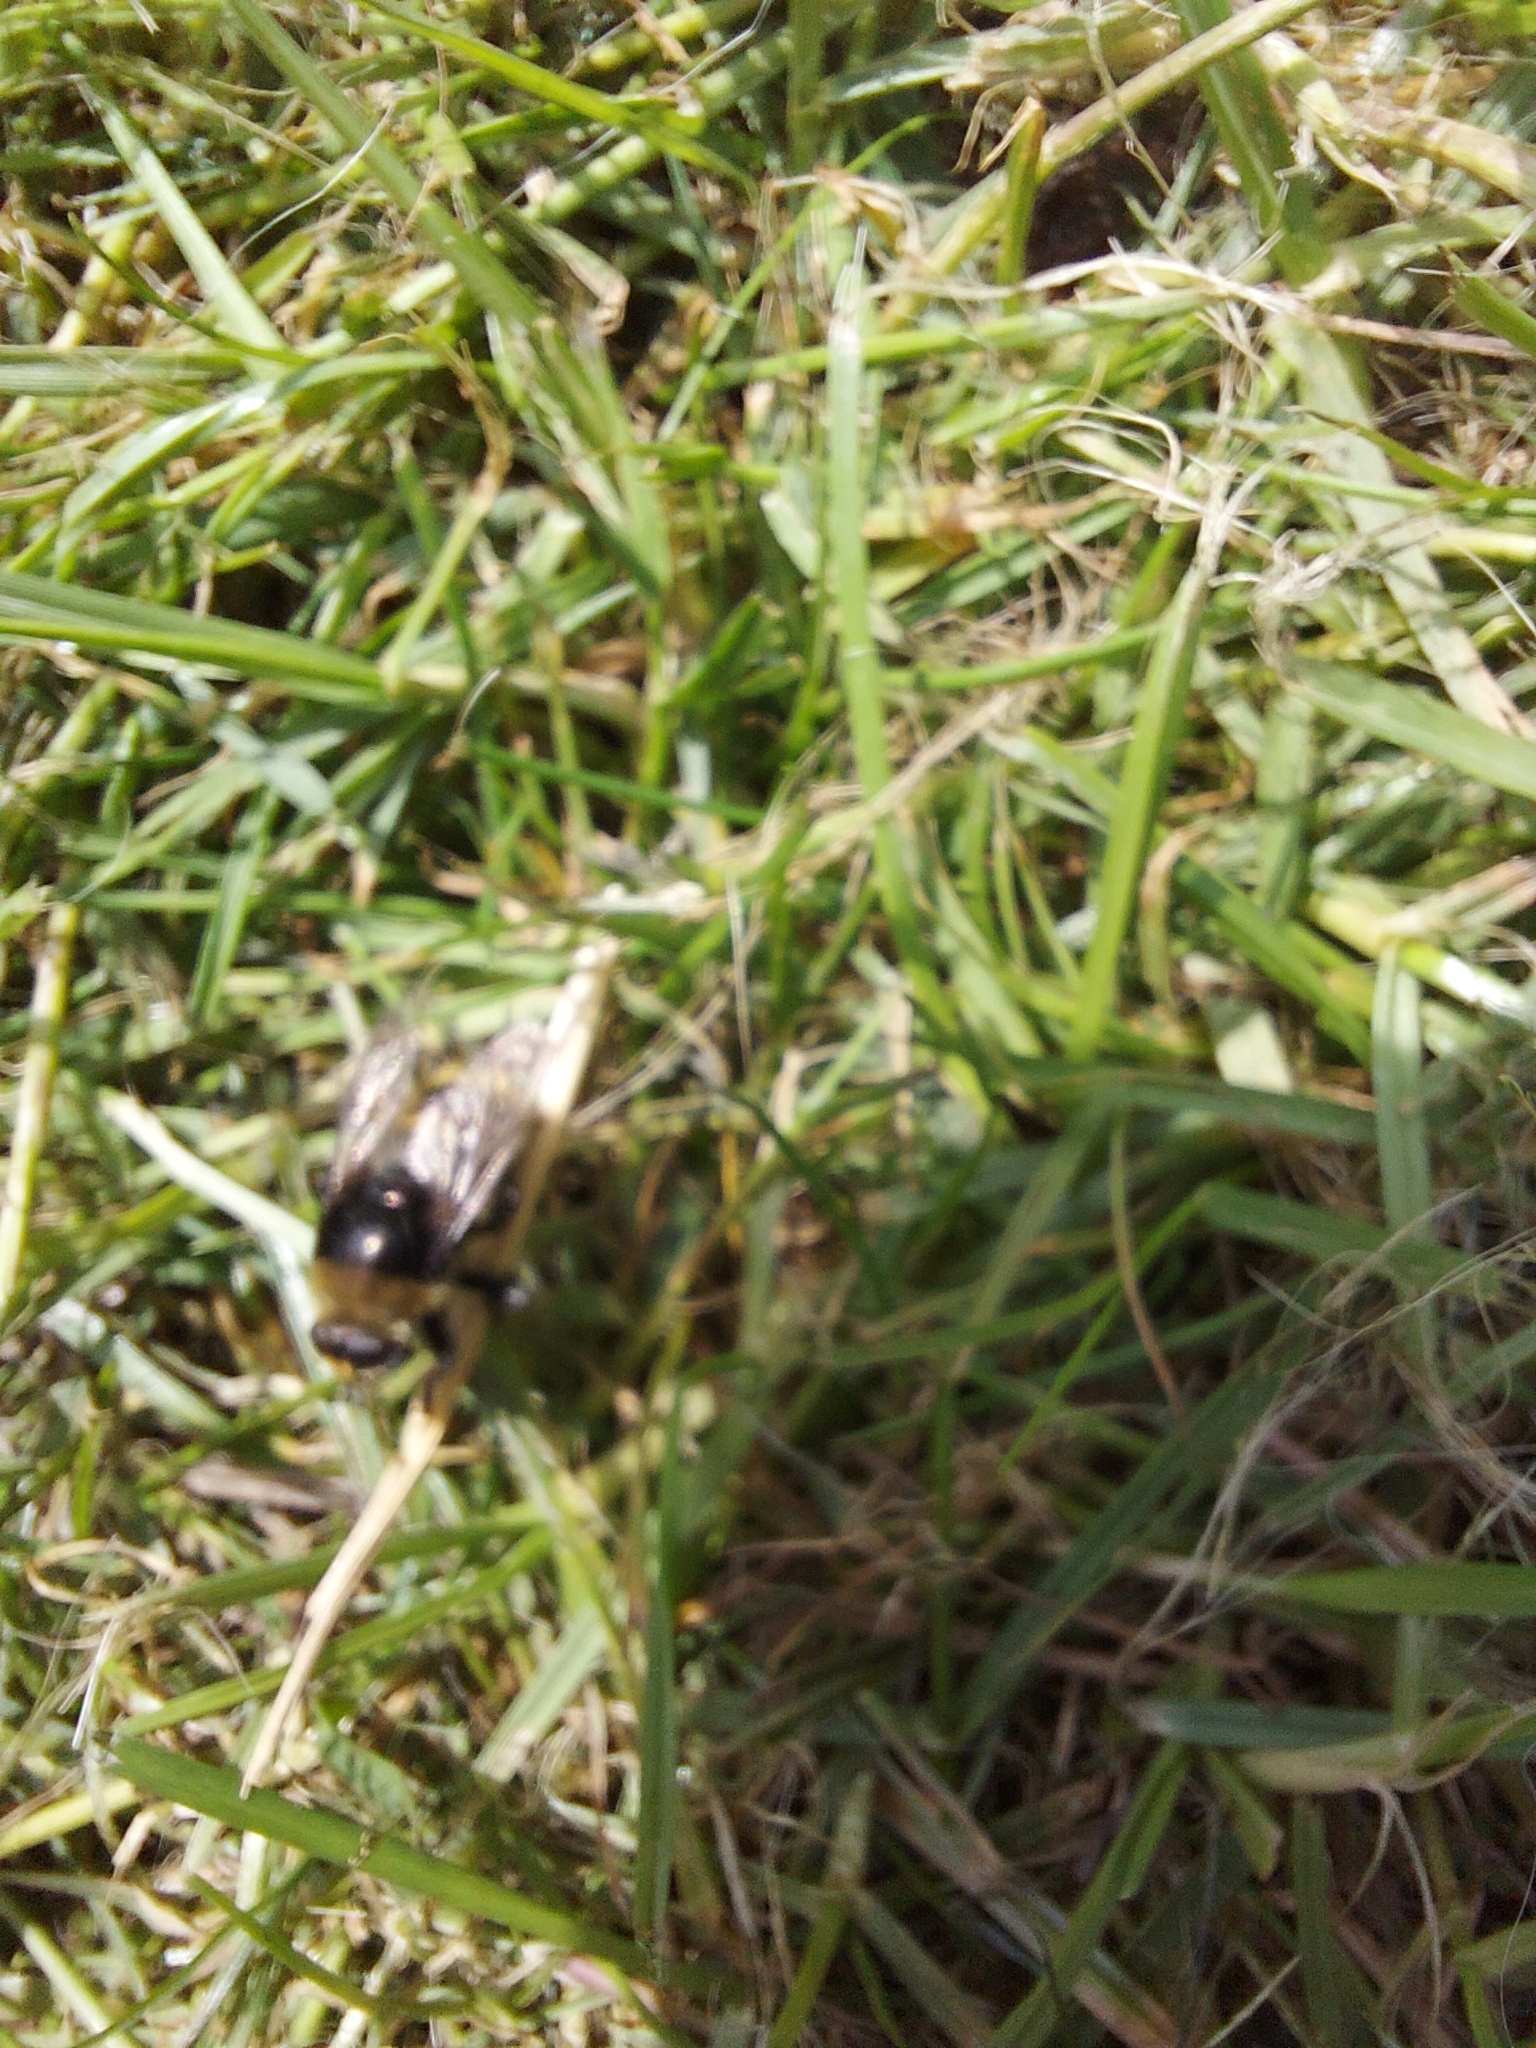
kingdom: Animalia
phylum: Arthropoda
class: Insecta
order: Diptera
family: Syrphidae
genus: Merodon
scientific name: Merodon equestris
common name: Greater bulb-fly
